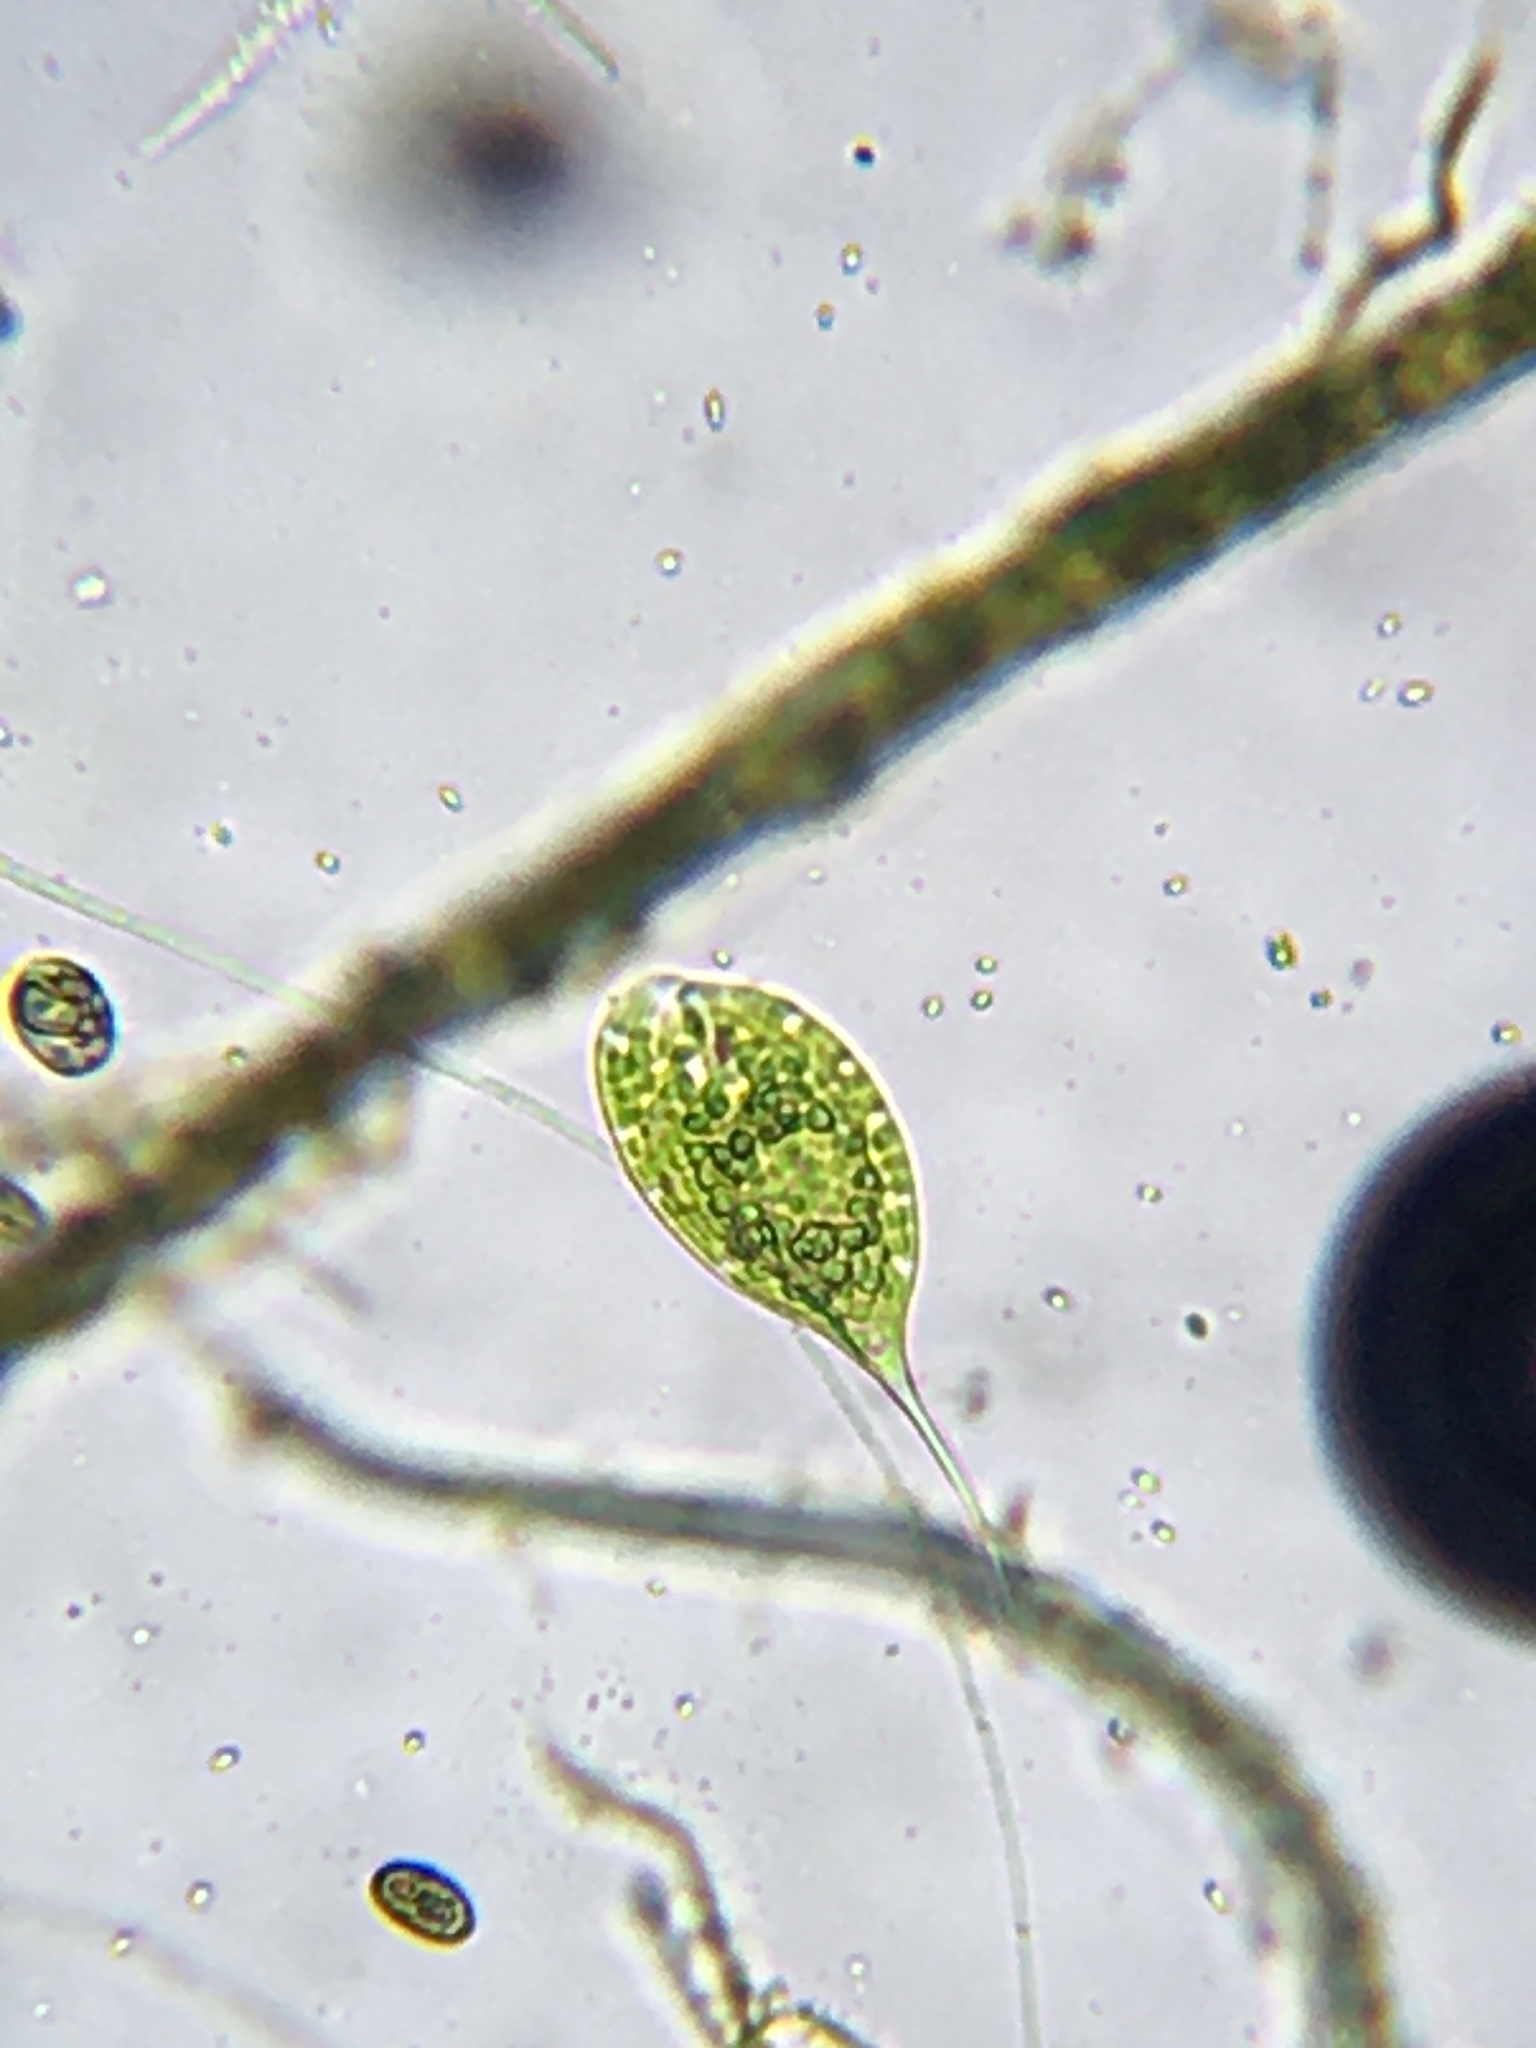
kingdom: Protozoa
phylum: Euglenozoa
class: Euglenoidea
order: Euglenida
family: Phacidae
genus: Phacus
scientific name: Phacus elegans
